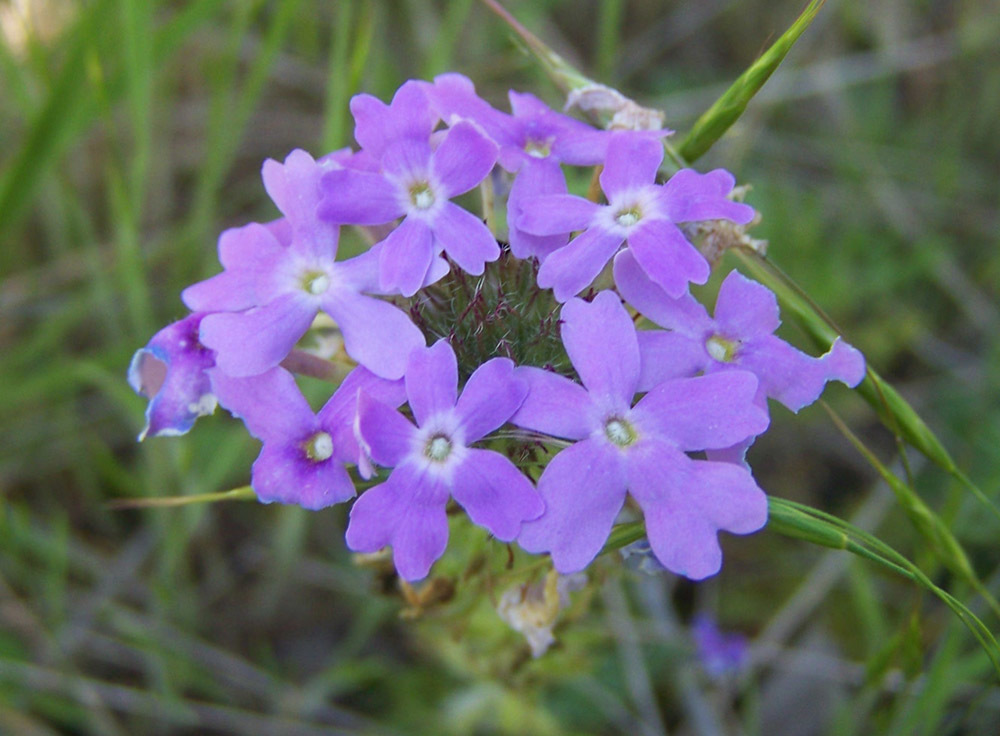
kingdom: Plantae
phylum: Tracheophyta
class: Magnoliopsida
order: Lamiales
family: Verbenaceae
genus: Verbena
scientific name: Verbena bipinnatifida
